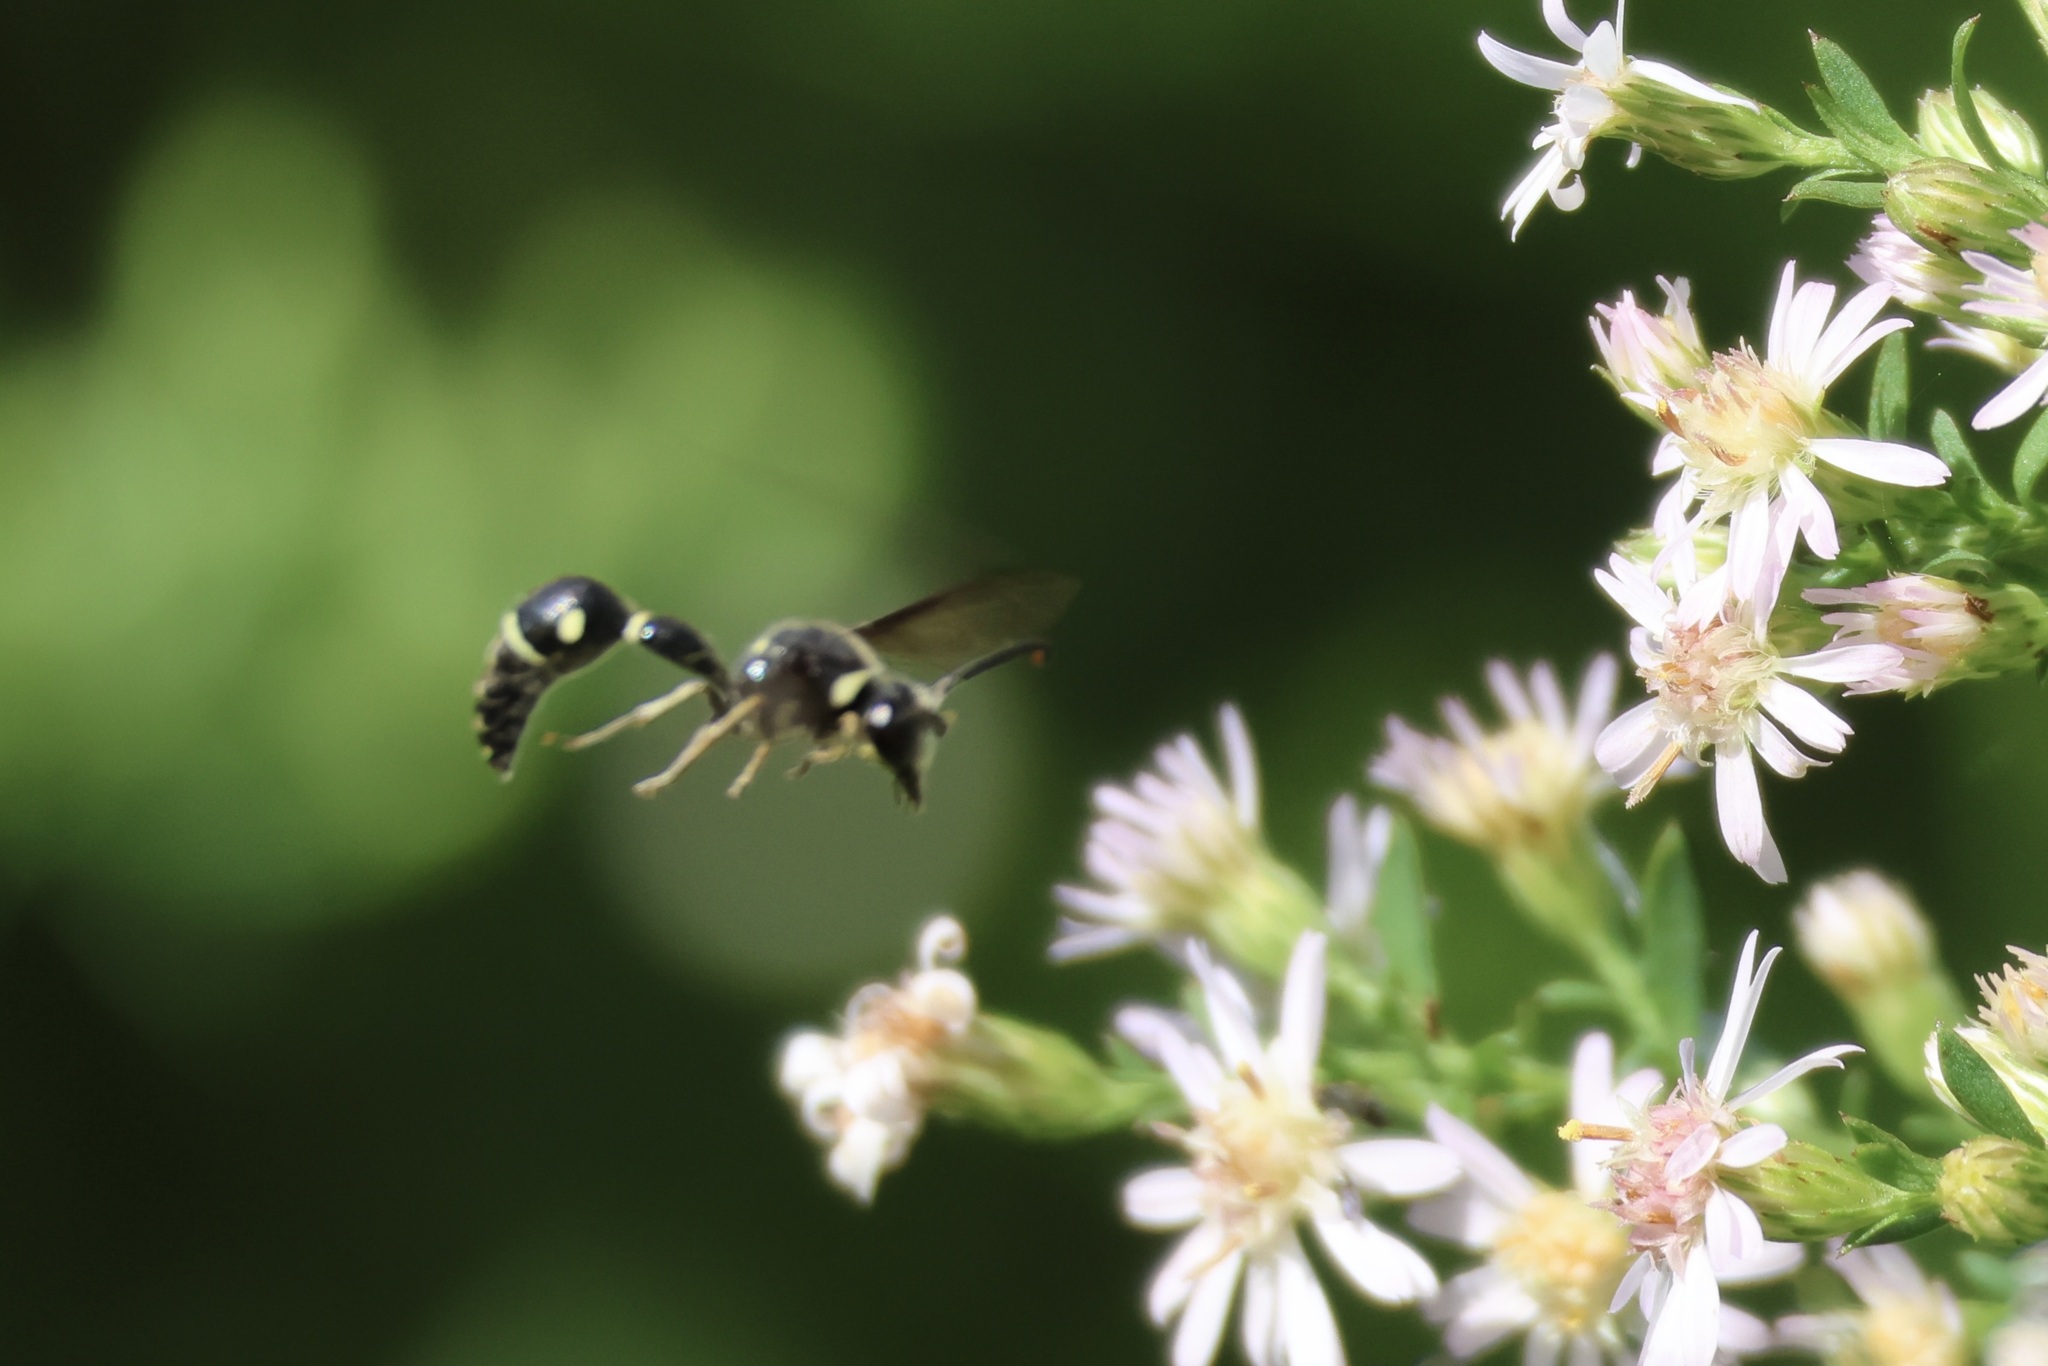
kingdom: Animalia
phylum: Arthropoda
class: Insecta
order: Hymenoptera
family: Vespidae
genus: Eumenes
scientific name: Eumenes fraternus
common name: Fraternal potter wasp
